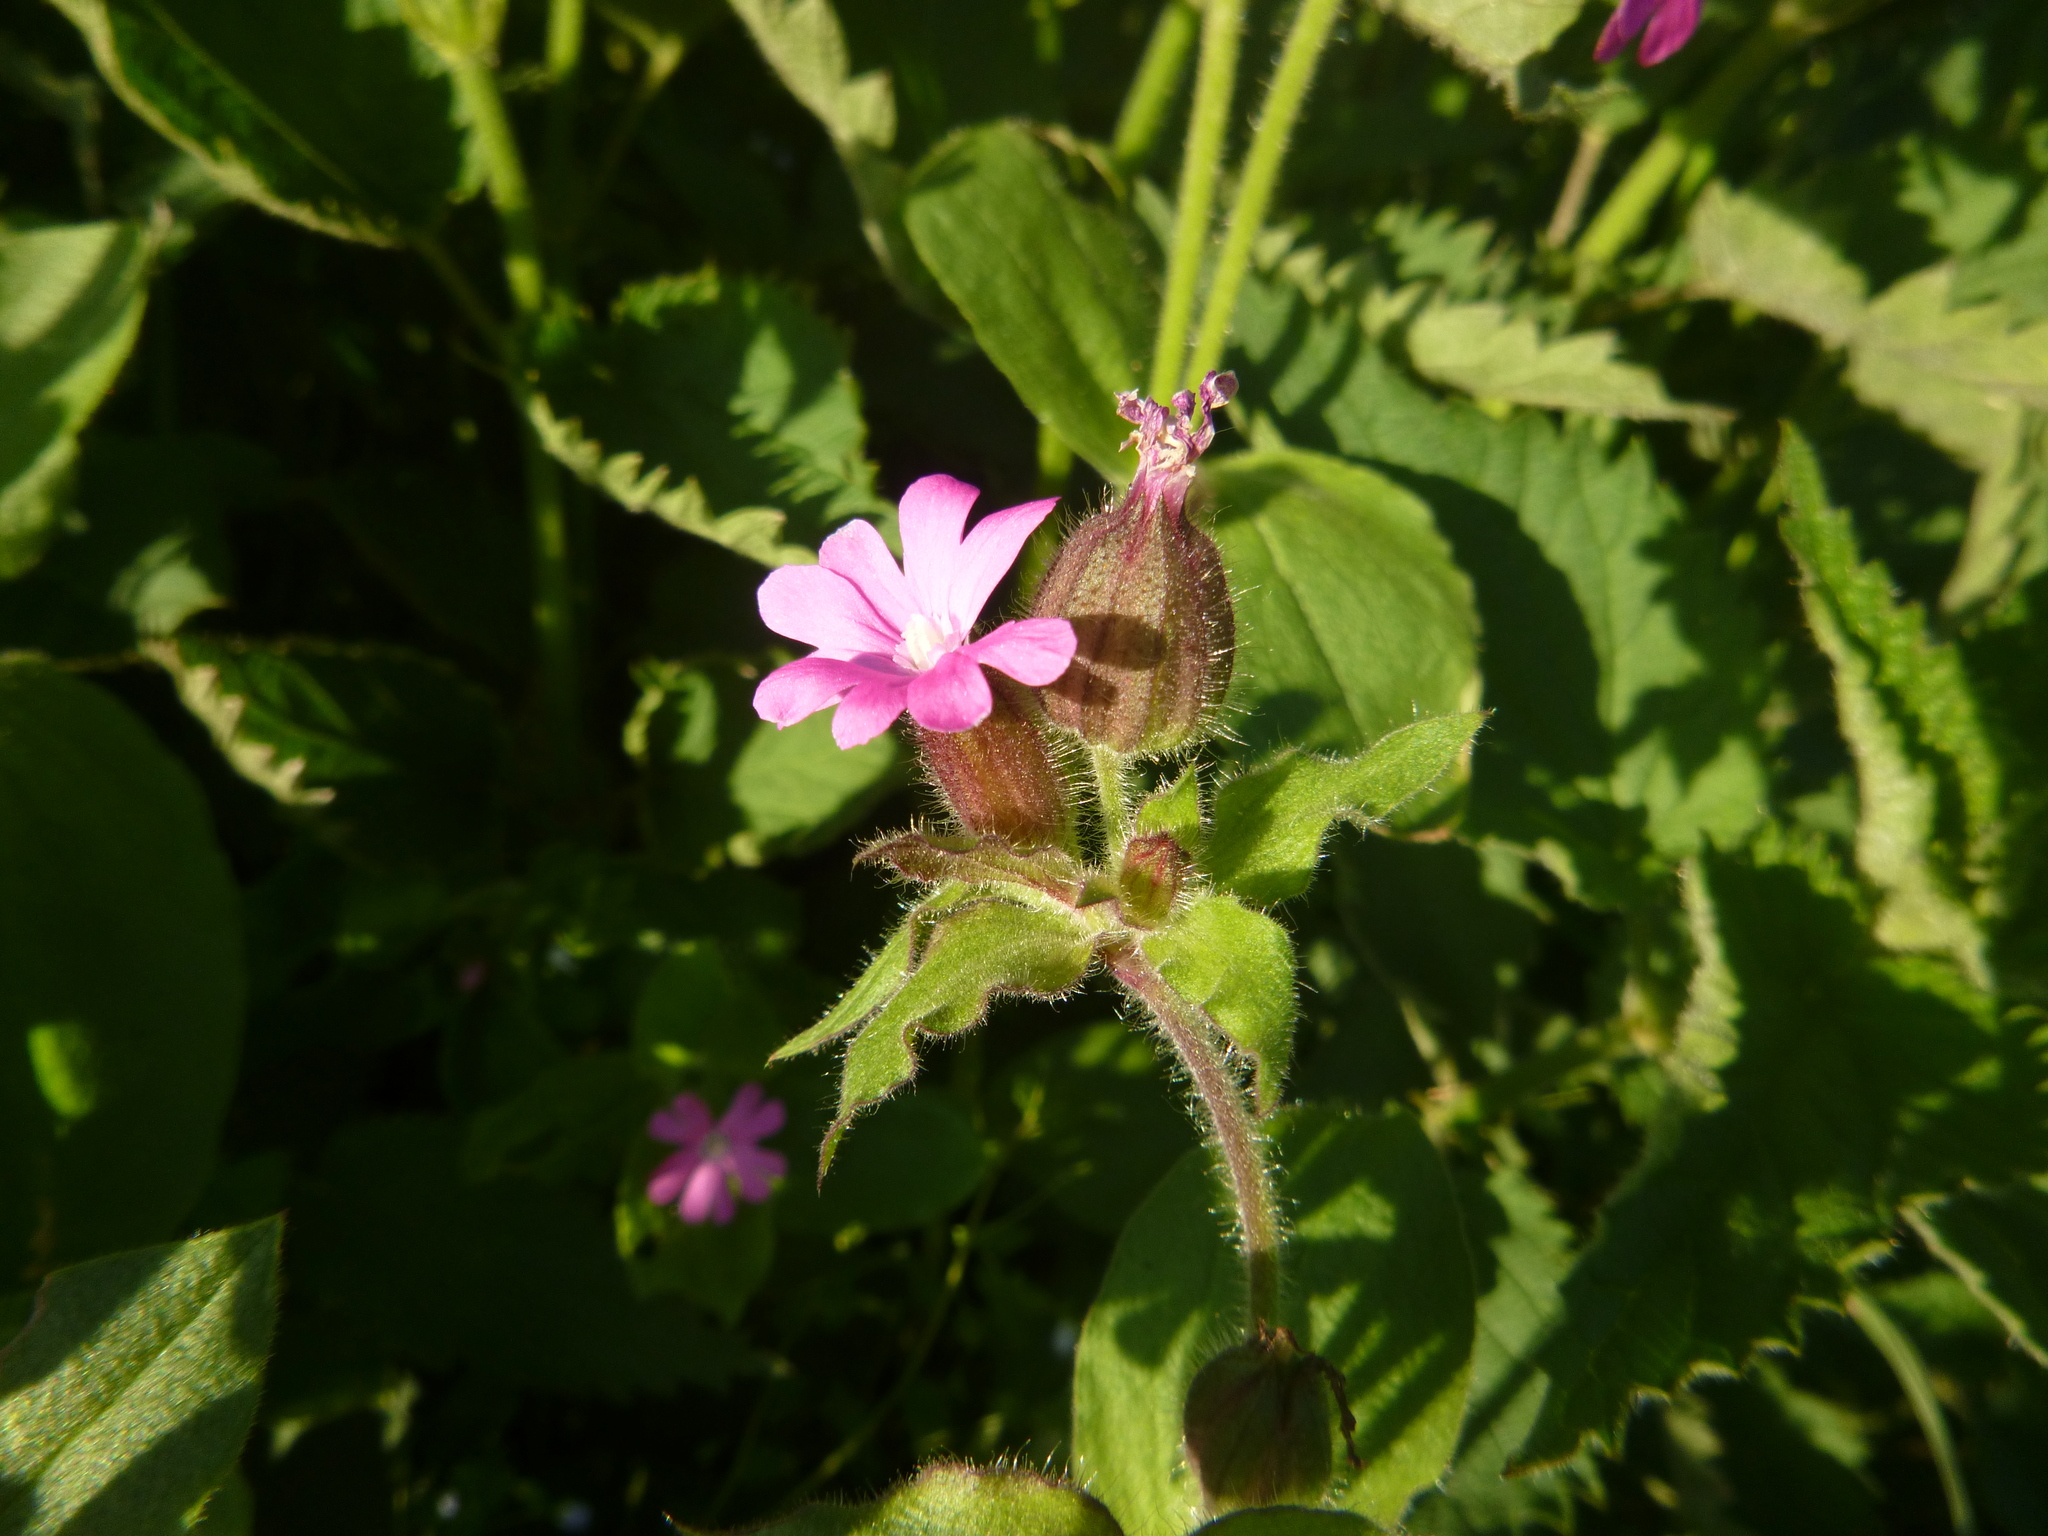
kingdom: Plantae
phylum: Tracheophyta
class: Magnoliopsida
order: Caryophyllales
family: Caryophyllaceae
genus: Silene
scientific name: Silene dioica
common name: Red campion
